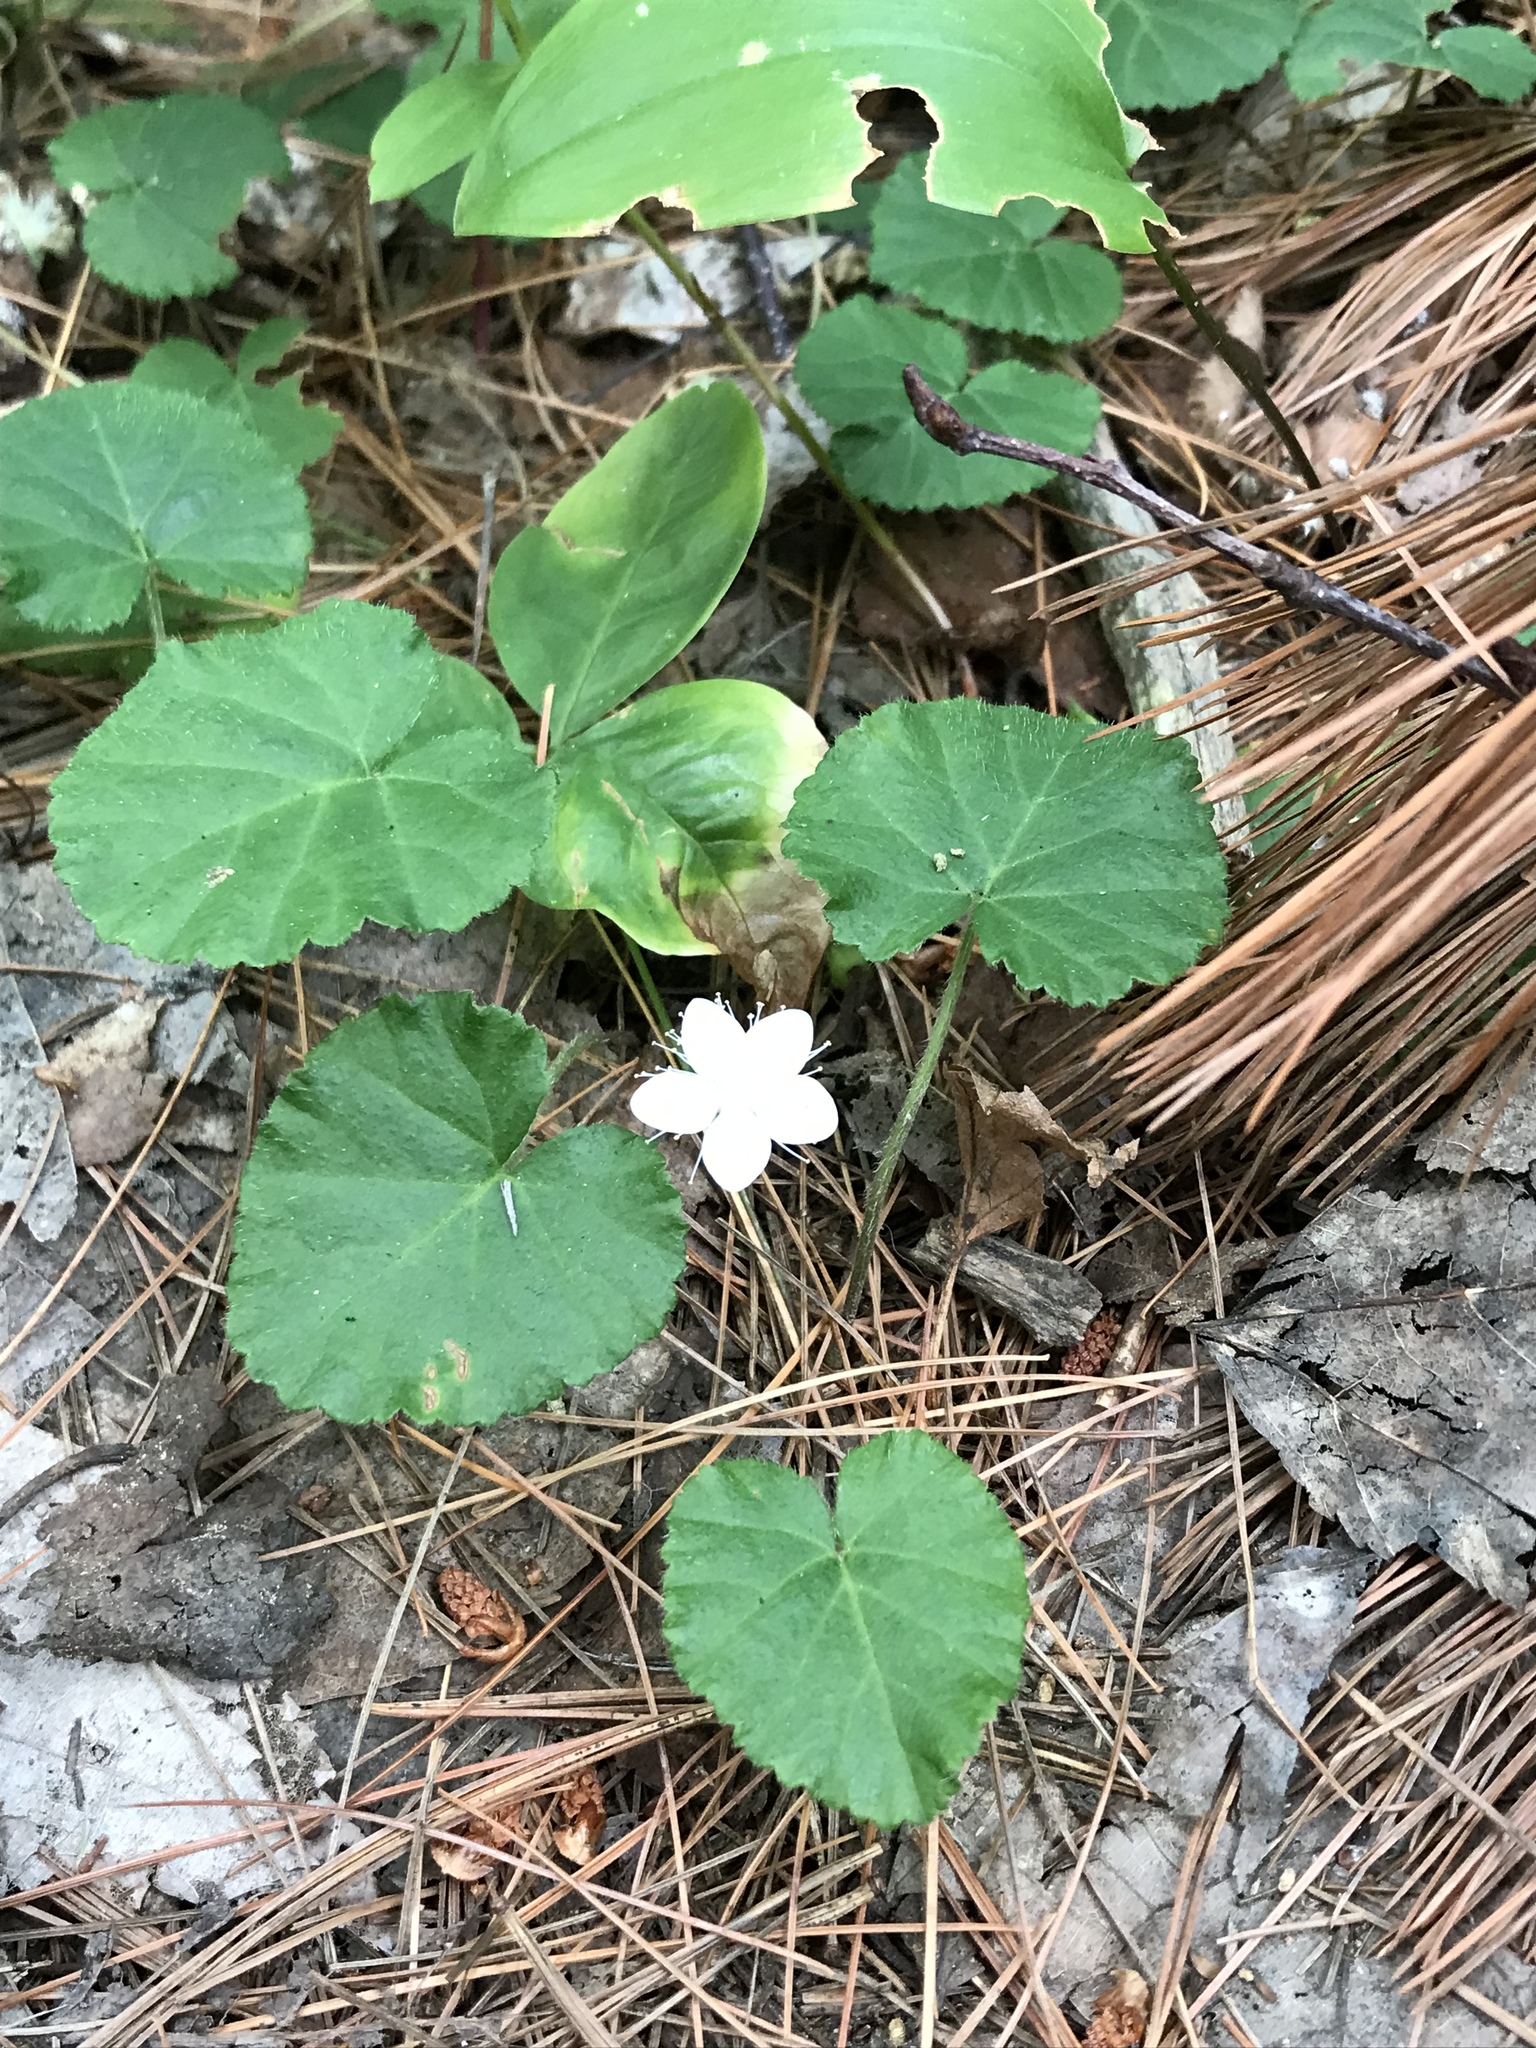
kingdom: Plantae
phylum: Tracheophyta
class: Magnoliopsida
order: Rosales
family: Rosaceae
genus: Dalibarda
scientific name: Dalibarda repens
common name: Dewdrop
